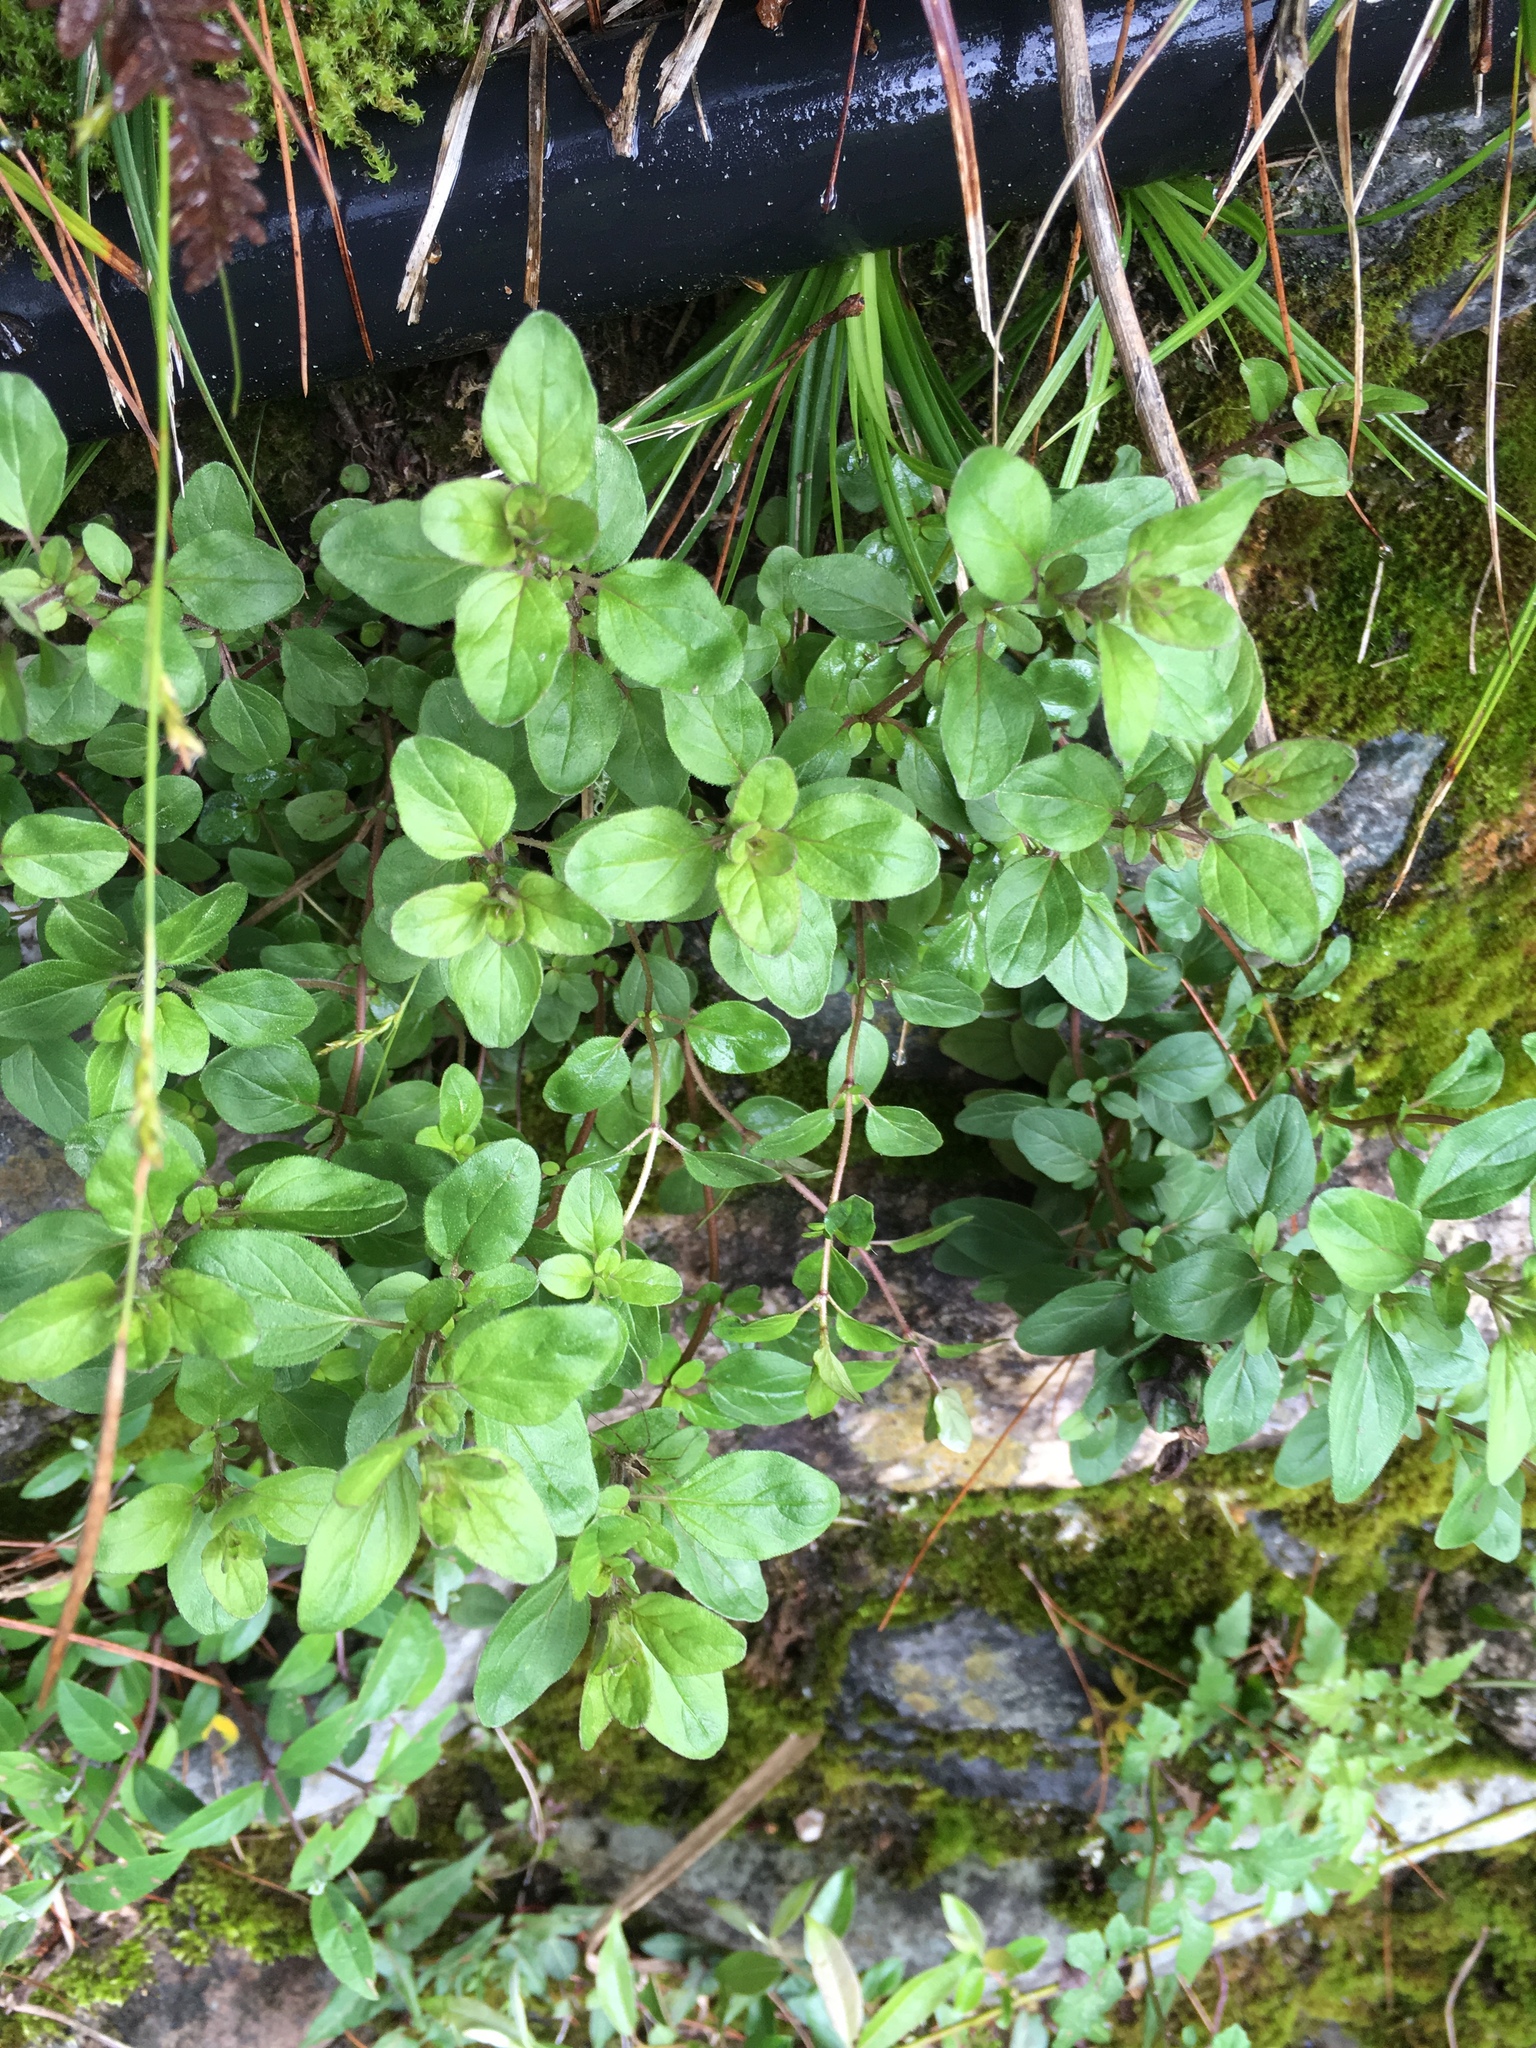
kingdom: Plantae
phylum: Tracheophyta
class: Magnoliopsida
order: Lamiales
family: Lamiaceae
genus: Origanum
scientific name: Origanum vulgare
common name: Wild marjoram
